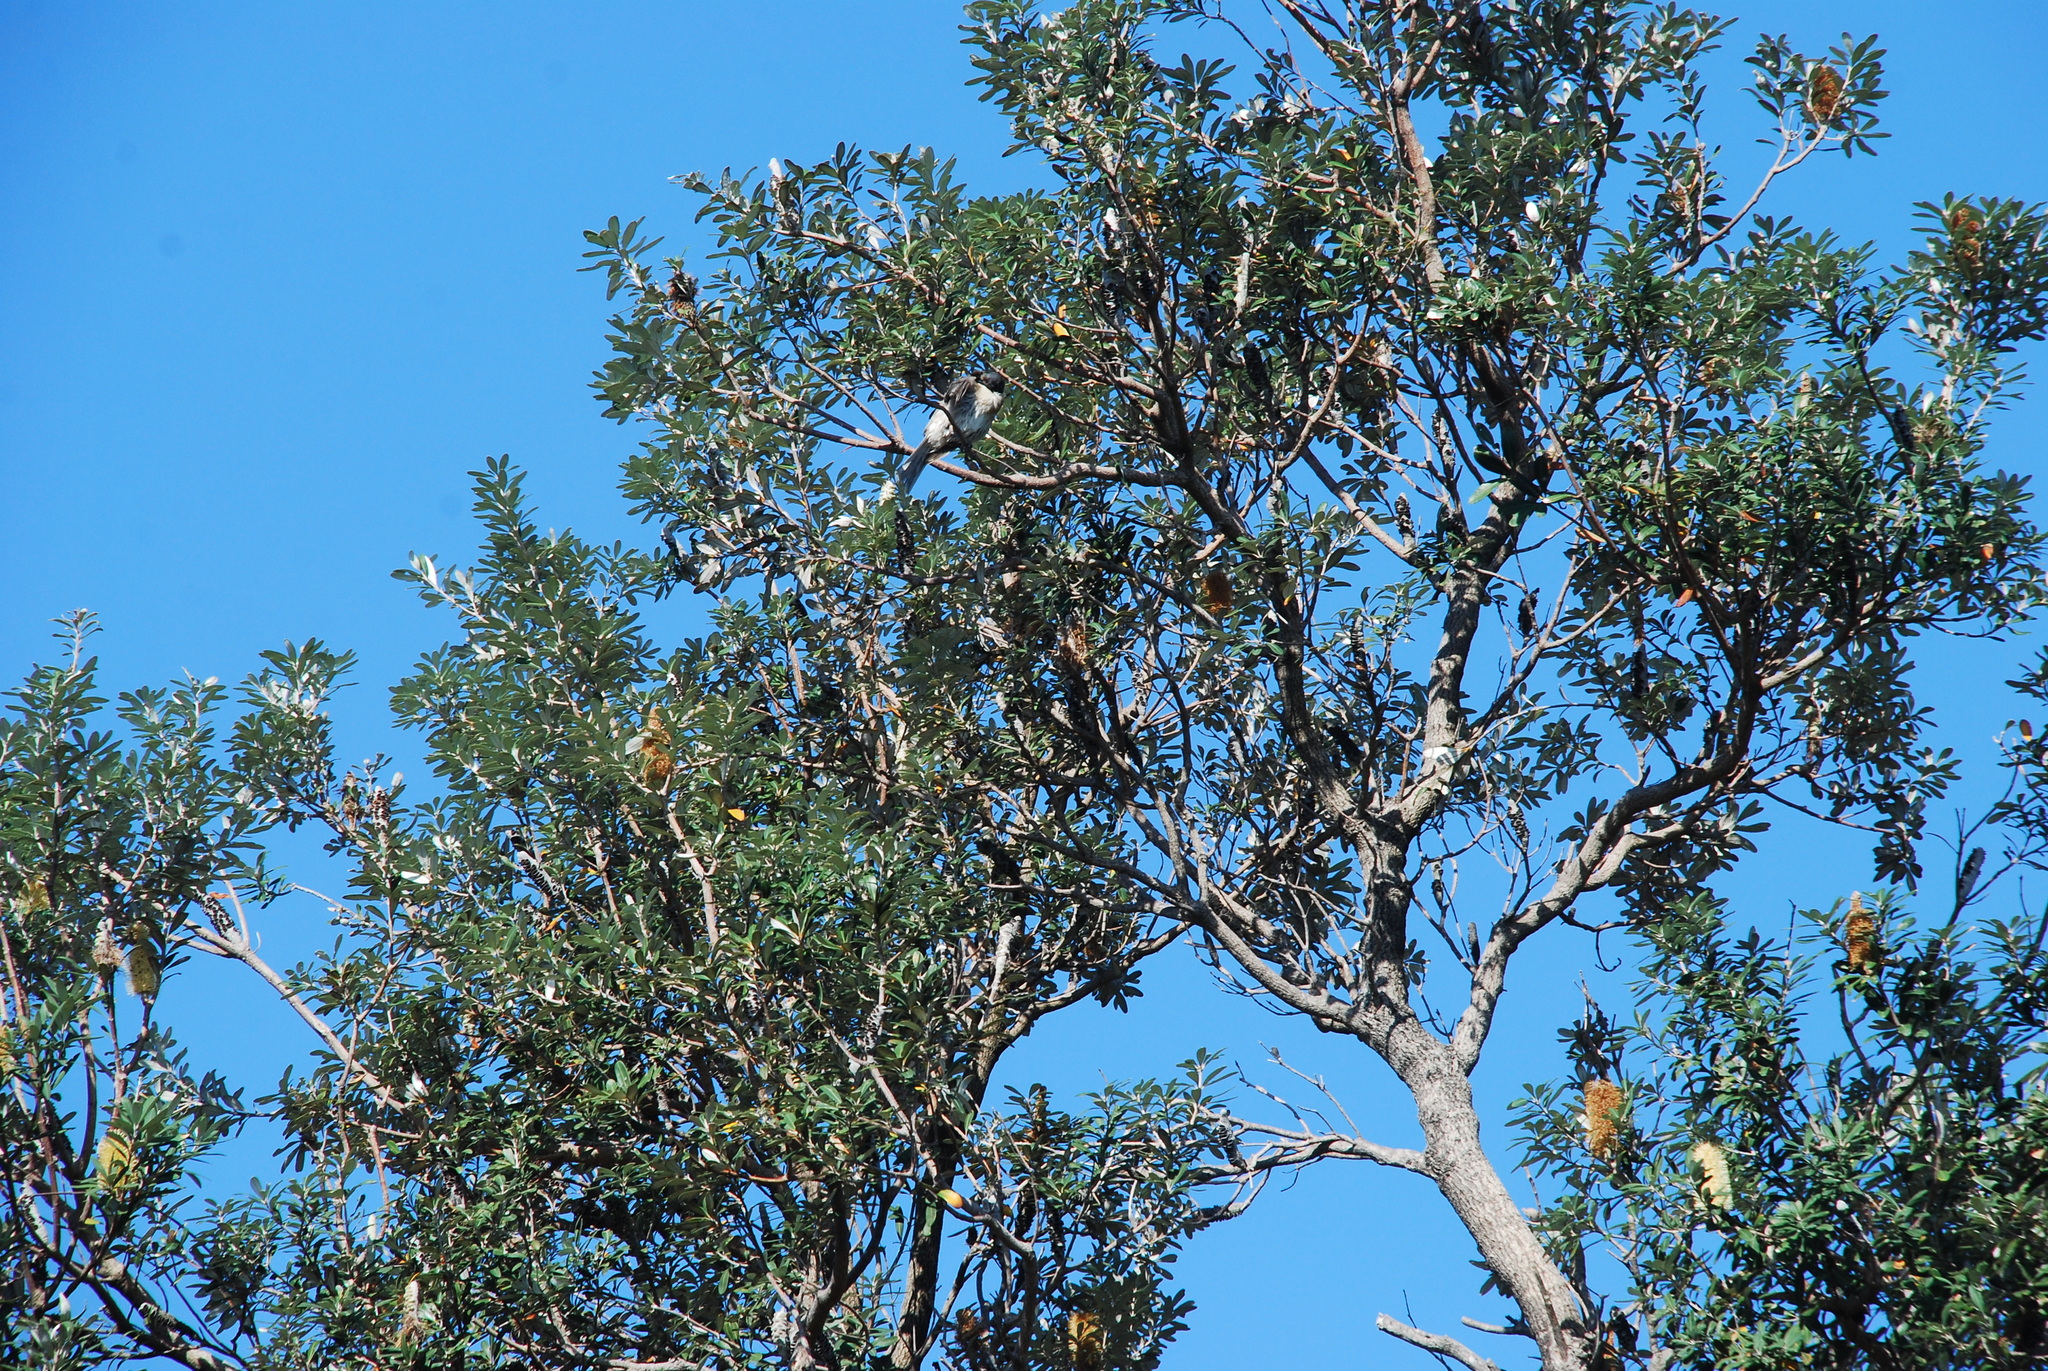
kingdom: Animalia
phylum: Chordata
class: Aves
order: Passeriformes
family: Meliphagidae
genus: Philemon
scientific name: Philemon corniculatus
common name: Noisy friarbird
